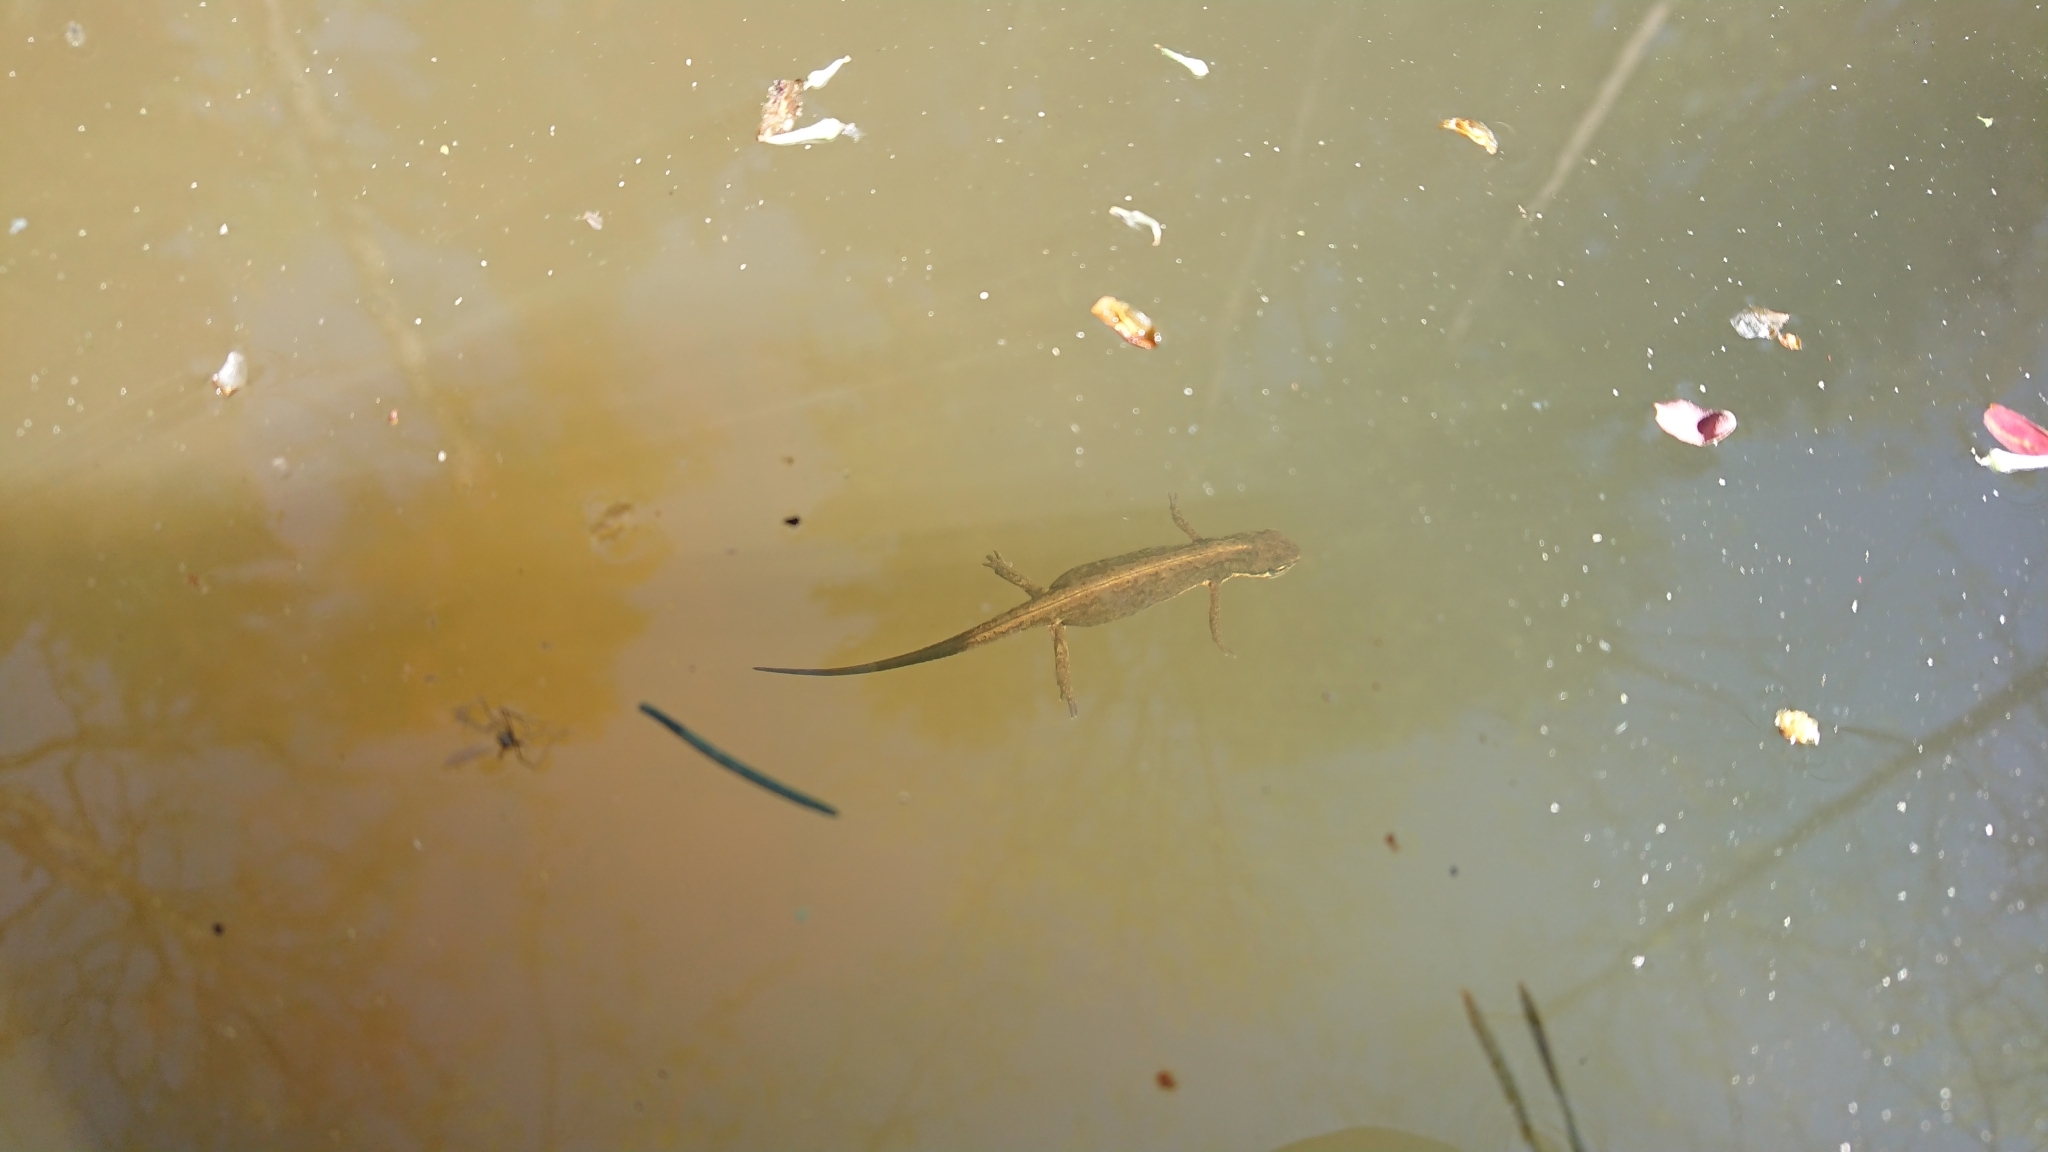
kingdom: Animalia
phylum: Chordata
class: Amphibia
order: Caudata
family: Salamandridae
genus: Lissotriton
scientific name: Lissotriton vulgaris
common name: Smooth newt
